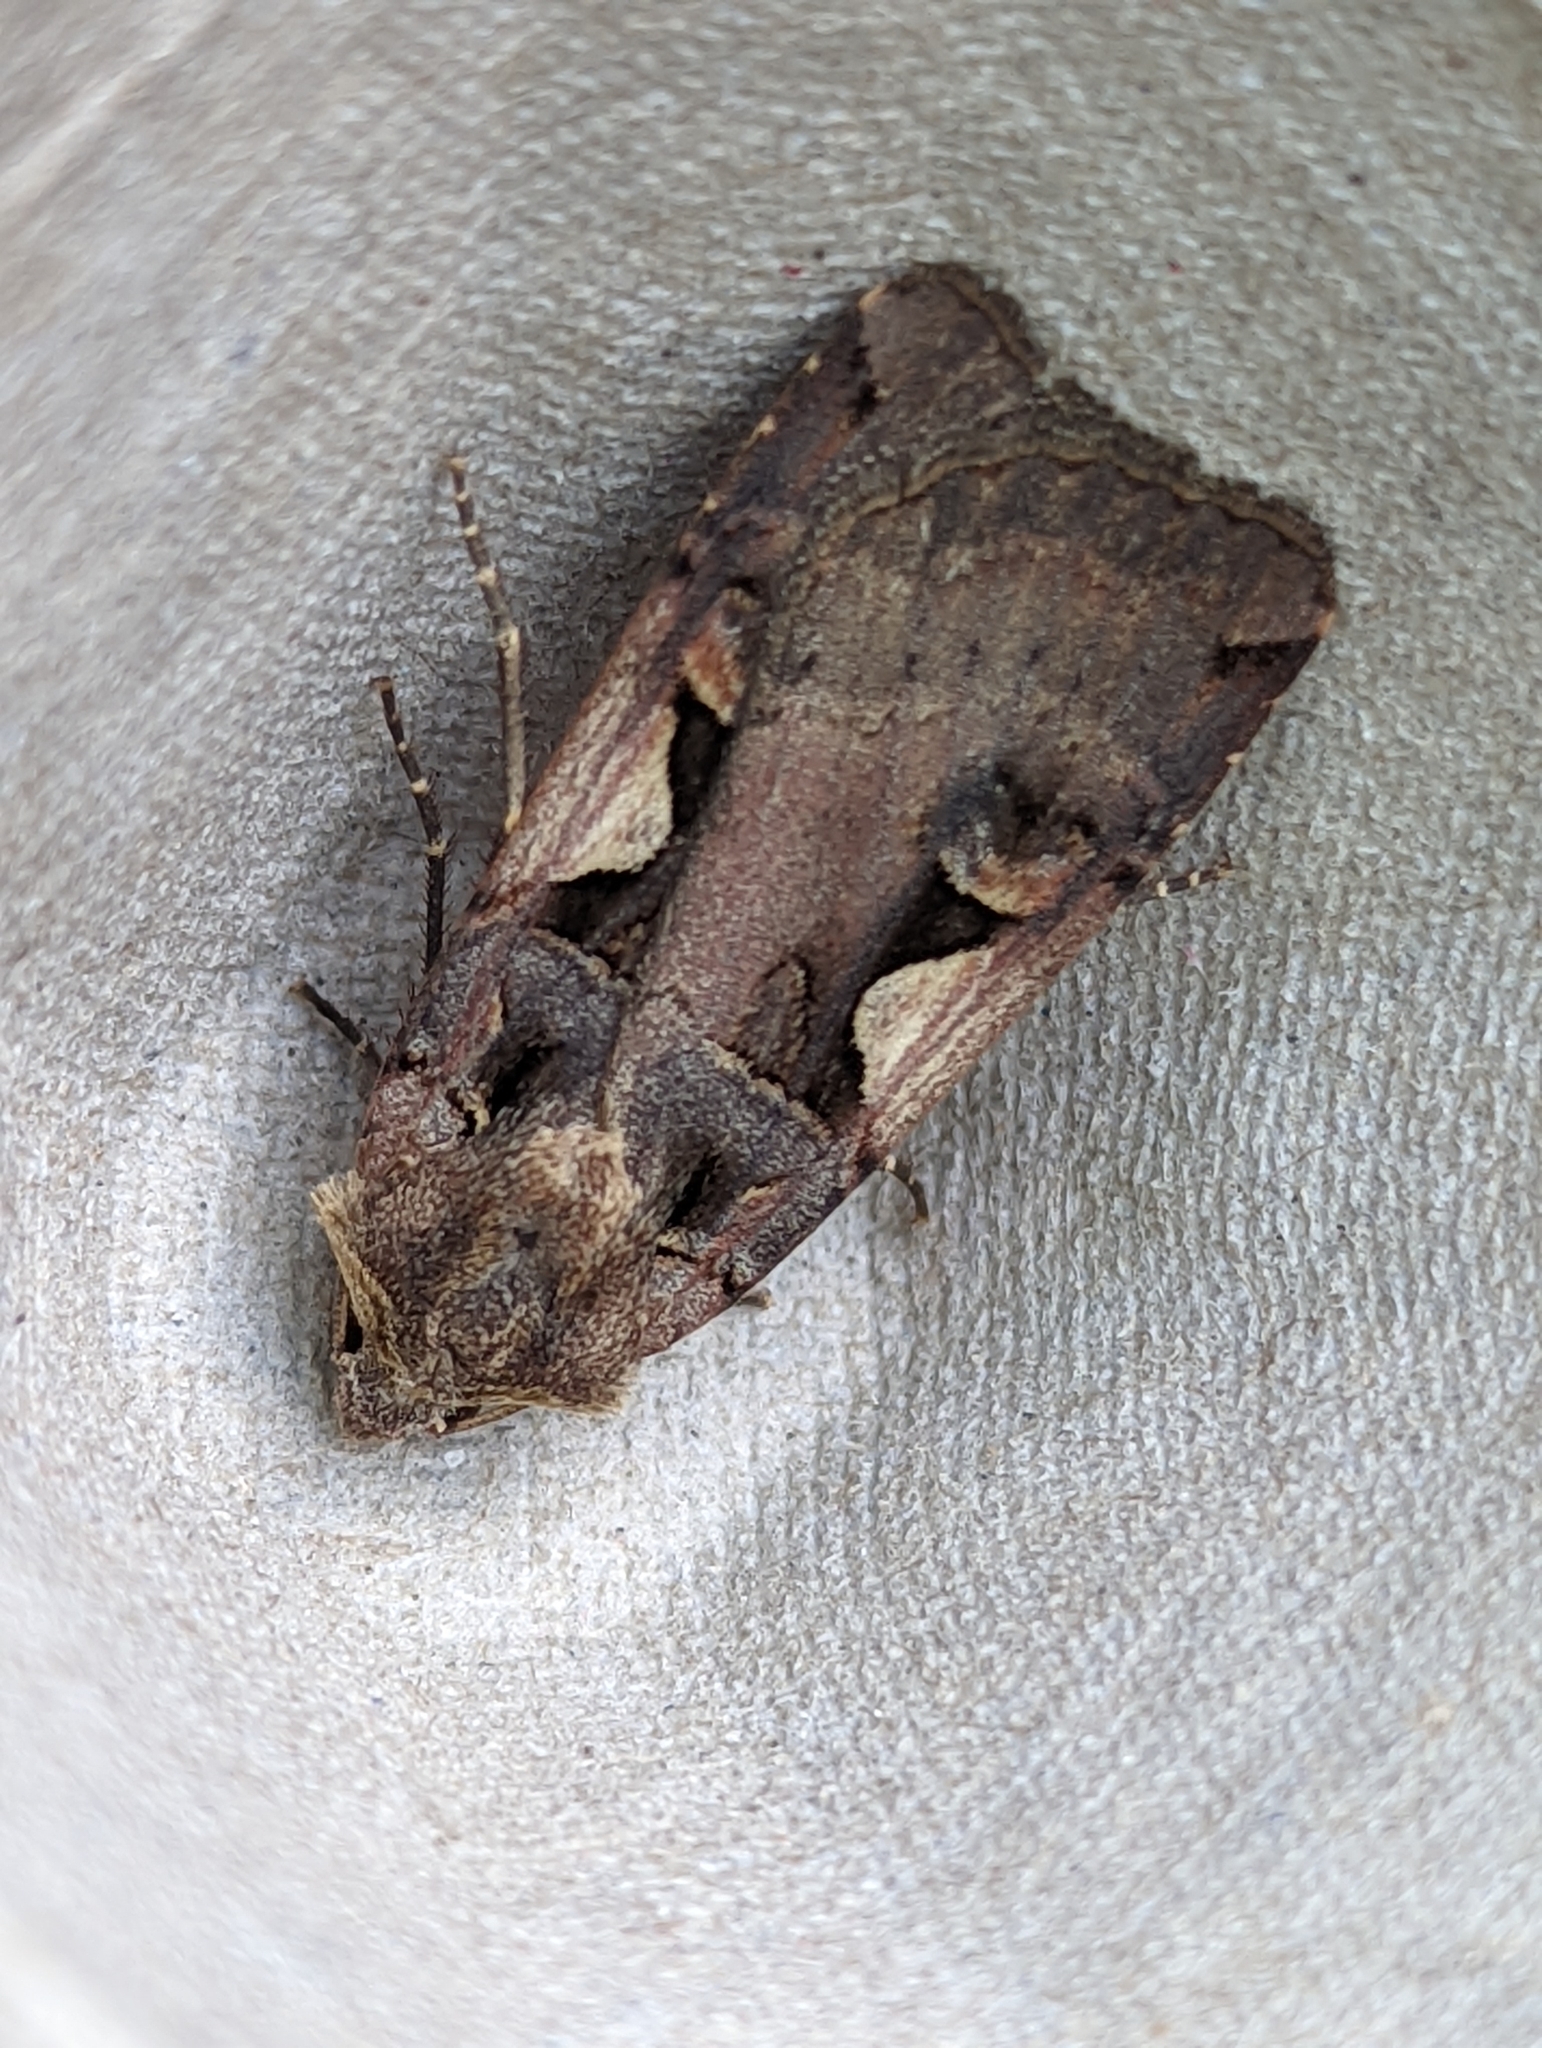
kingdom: Animalia
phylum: Arthropoda
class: Insecta
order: Lepidoptera
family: Noctuidae
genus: Xestia
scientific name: Xestia c-nigrum
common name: Setaceous hebrew character
